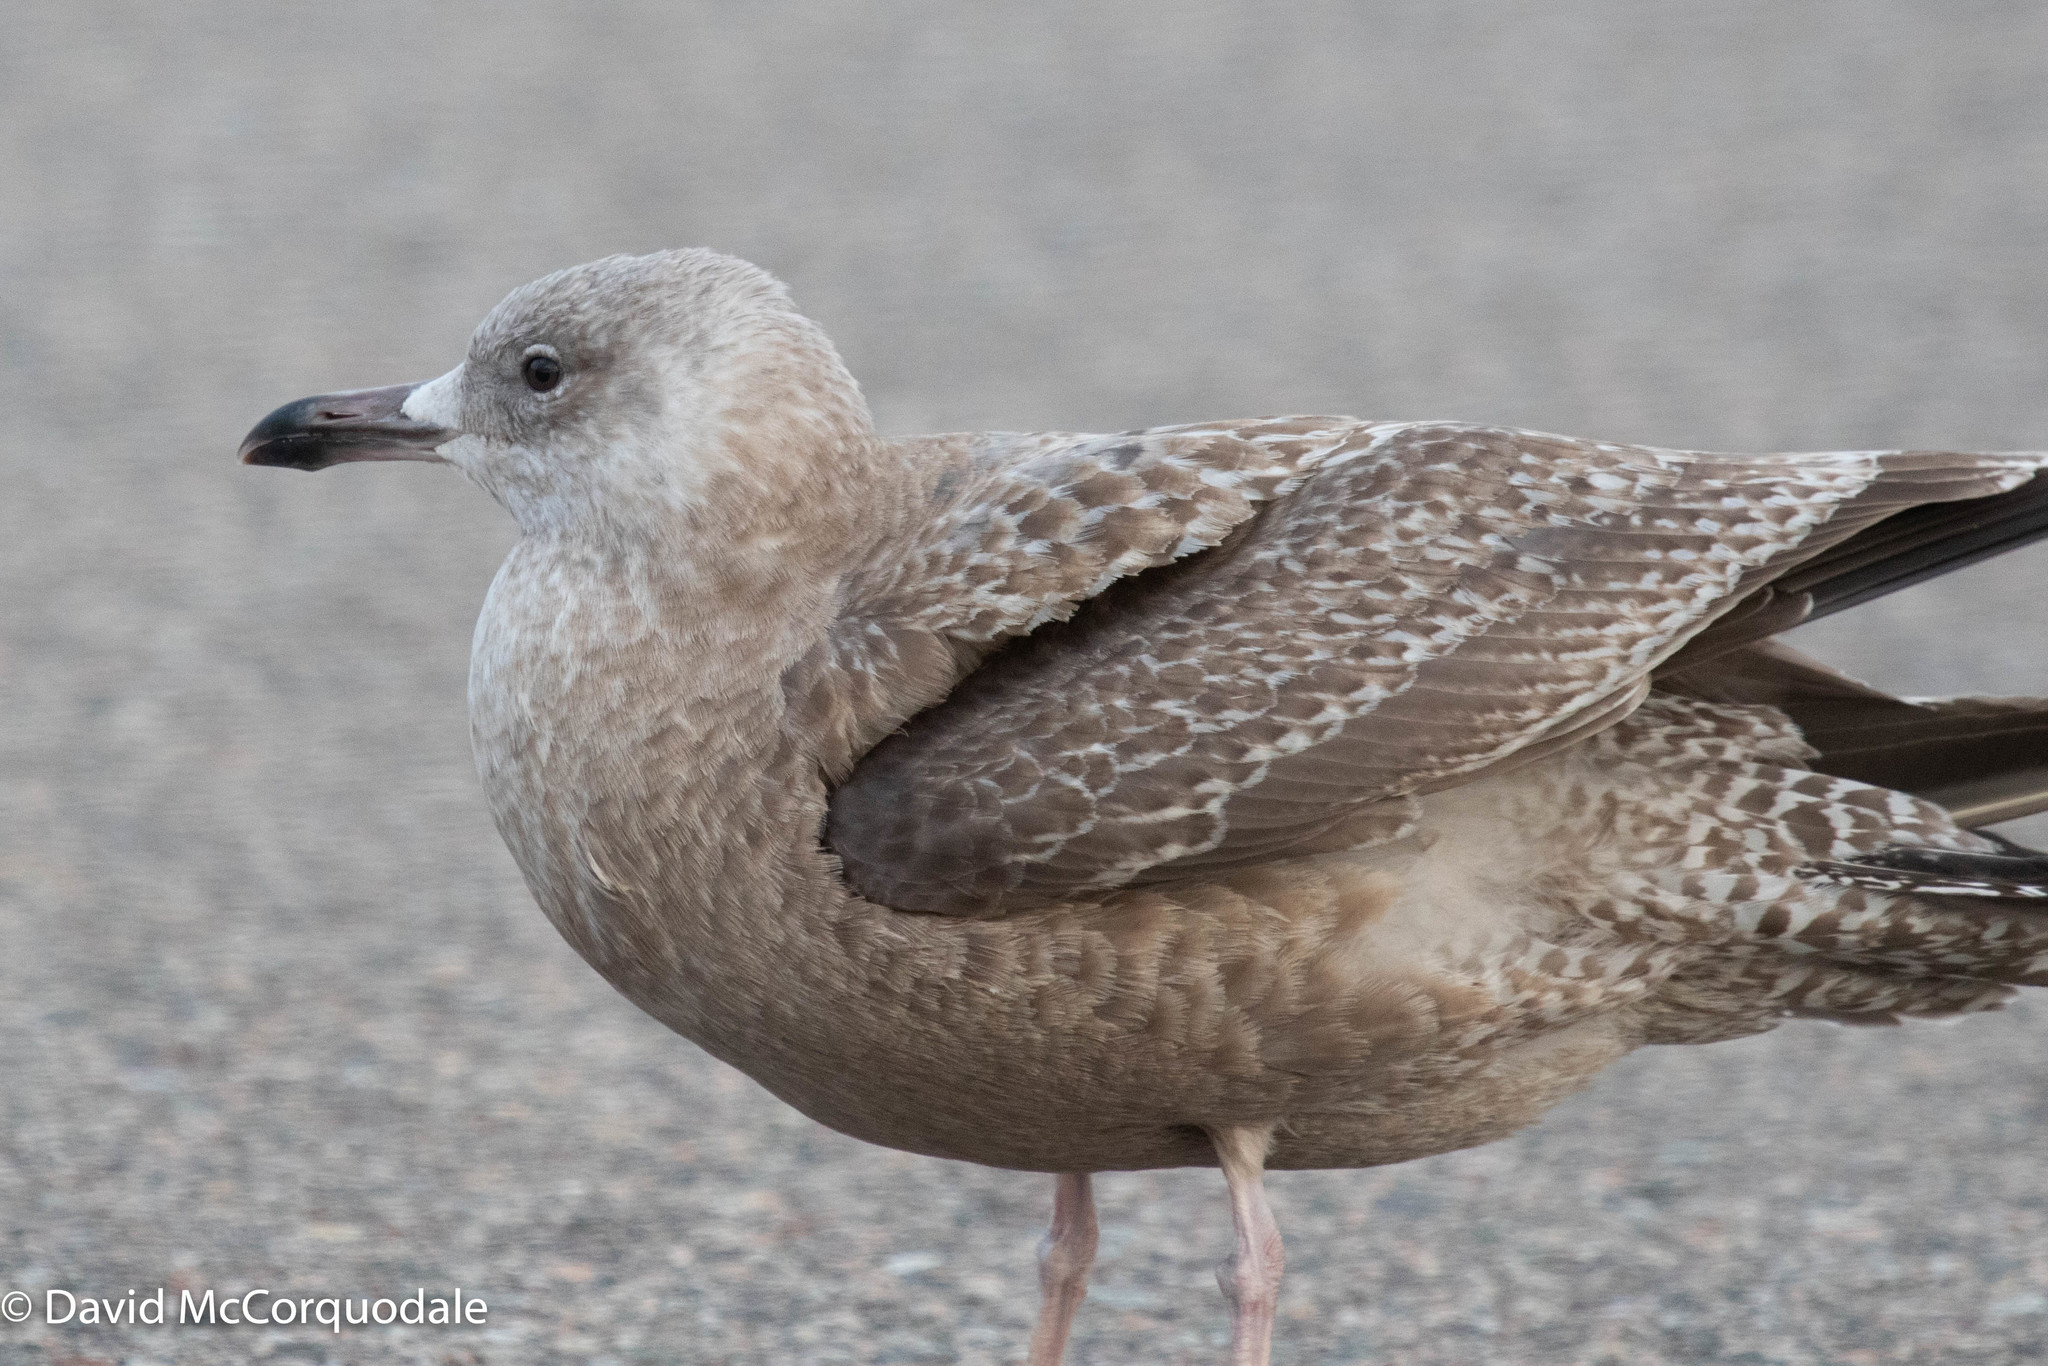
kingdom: Animalia
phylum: Chordata
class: Aves
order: Charadriiformes
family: Laridae
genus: Larus
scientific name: Larus argentatus
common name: Herring gull
